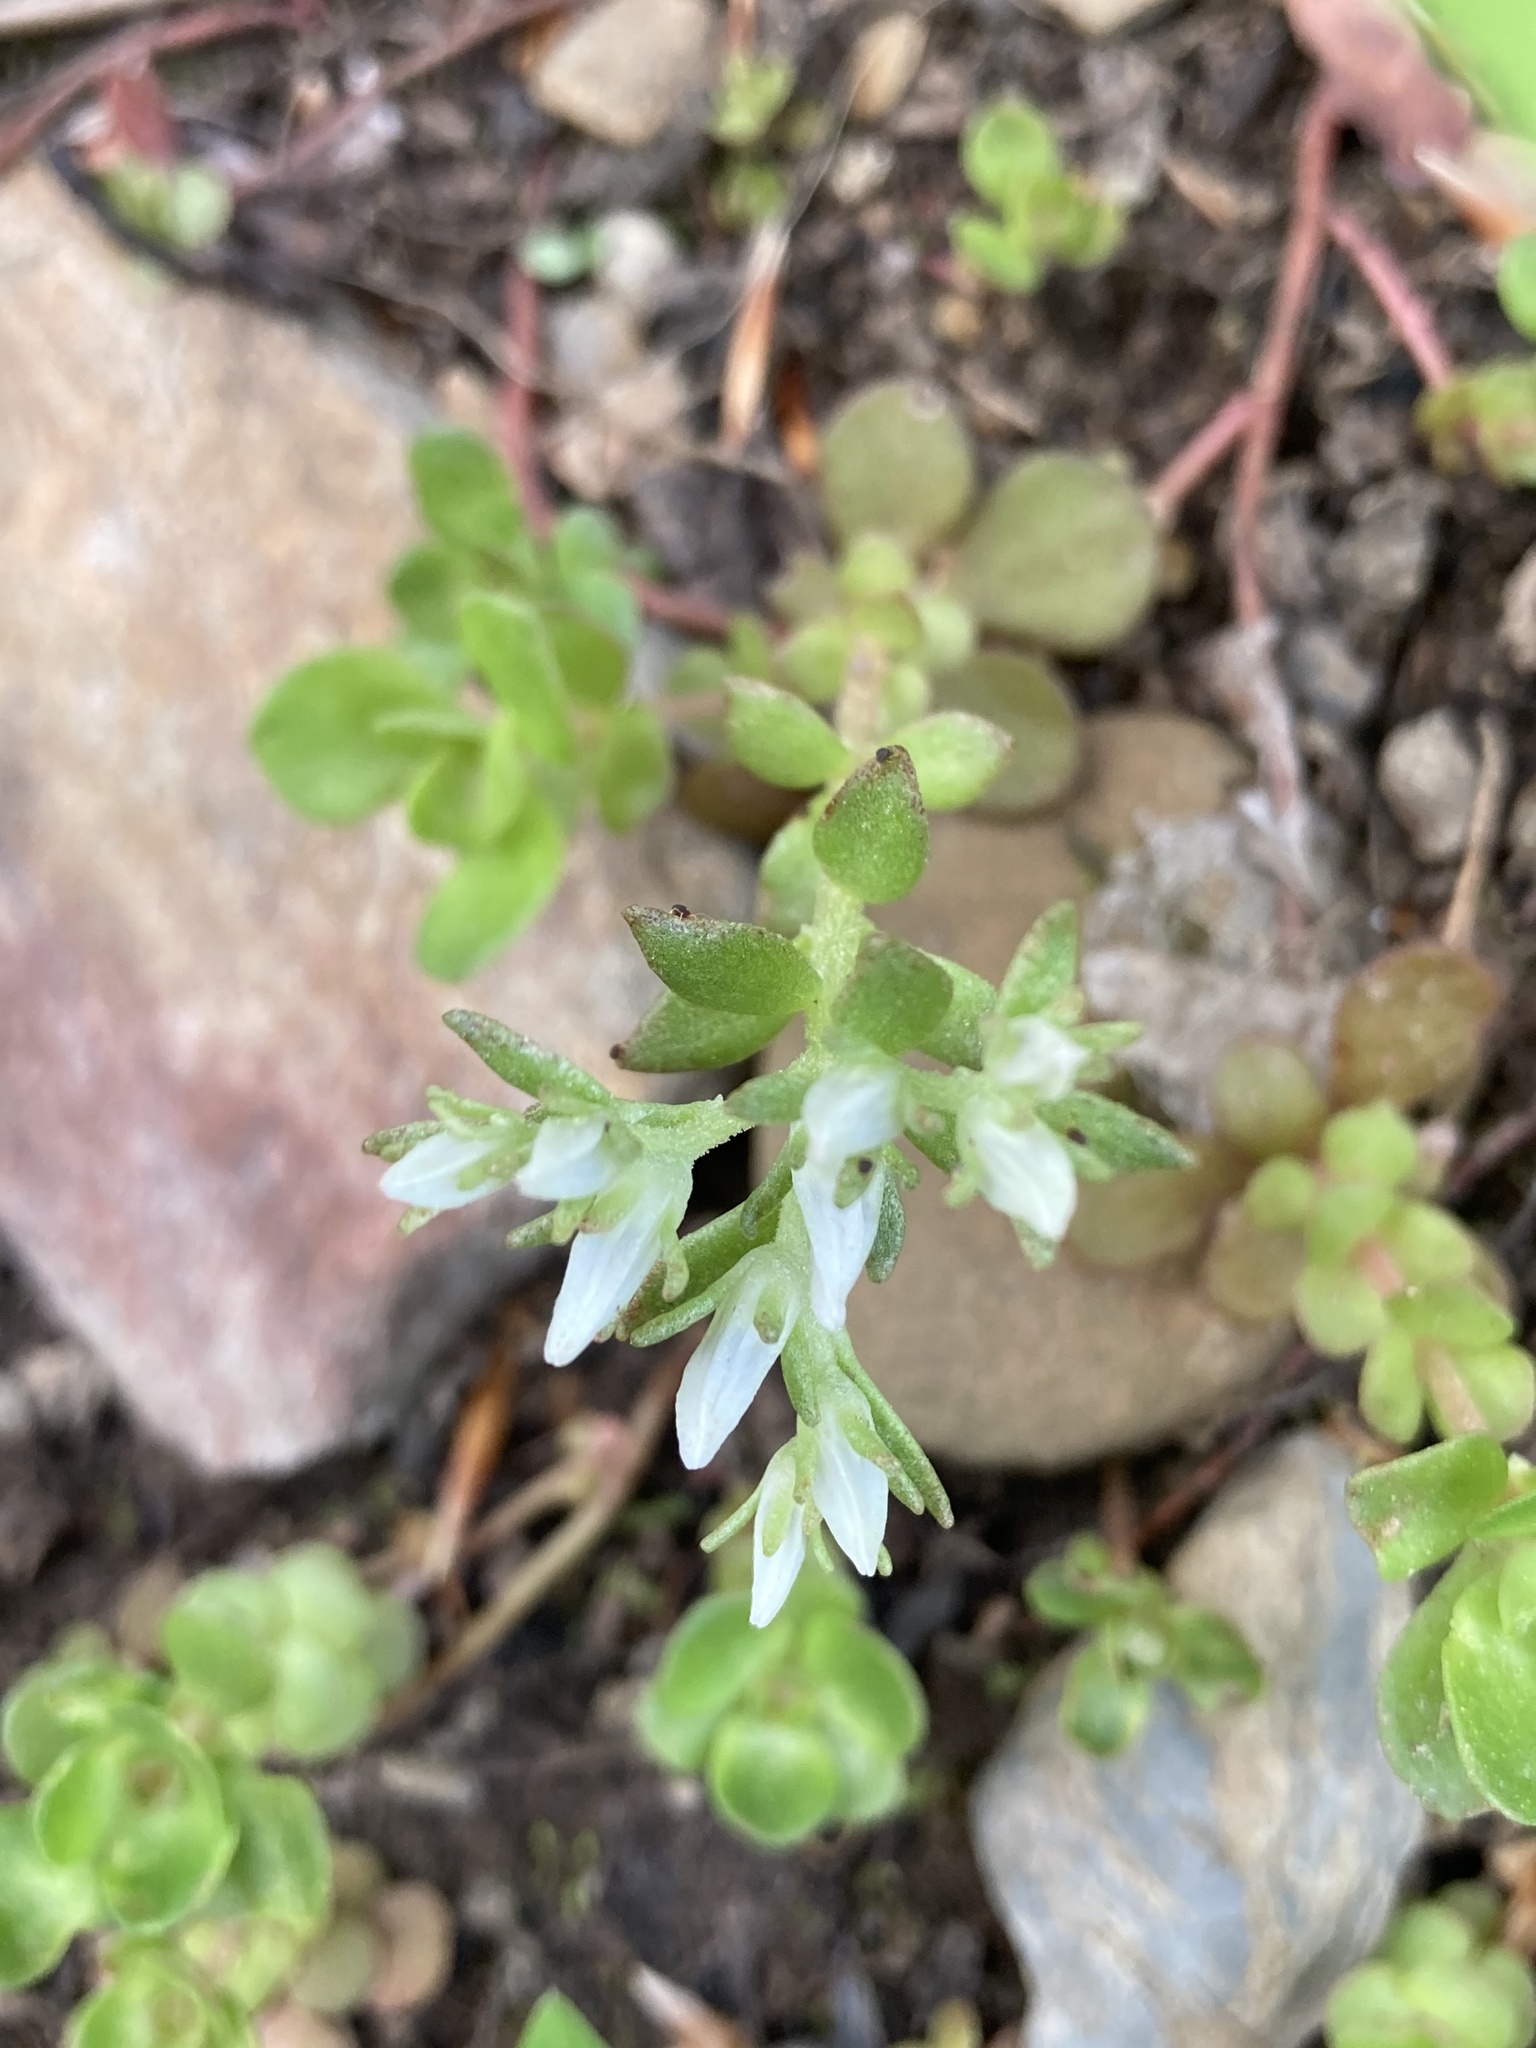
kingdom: Plantae
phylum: Tracheophyta
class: Magnoliopsida
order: Saxifragales
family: Crassulaceae
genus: Sedum
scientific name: Sedum ternatum
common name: Wild stonecrop
